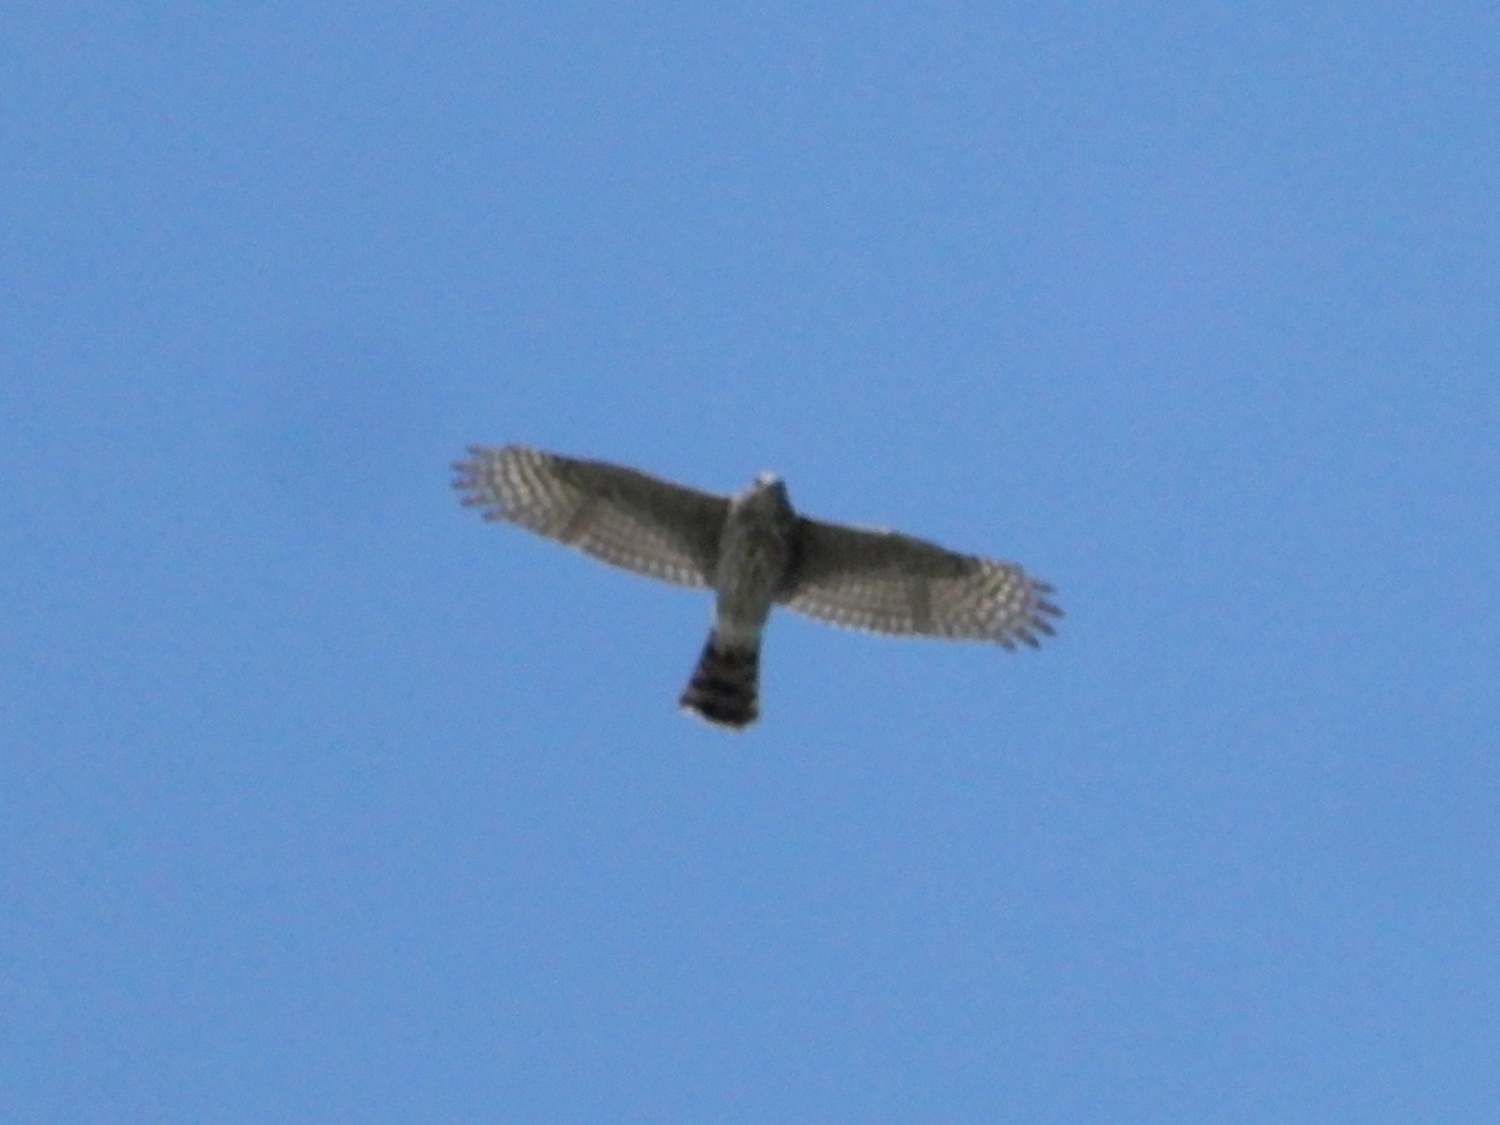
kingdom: Animalia
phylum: Chordata
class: Aves
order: Accipitriformes
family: Accipitridae
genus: Accipiter
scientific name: Accipiter cooperii
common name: Cooper's hawk
